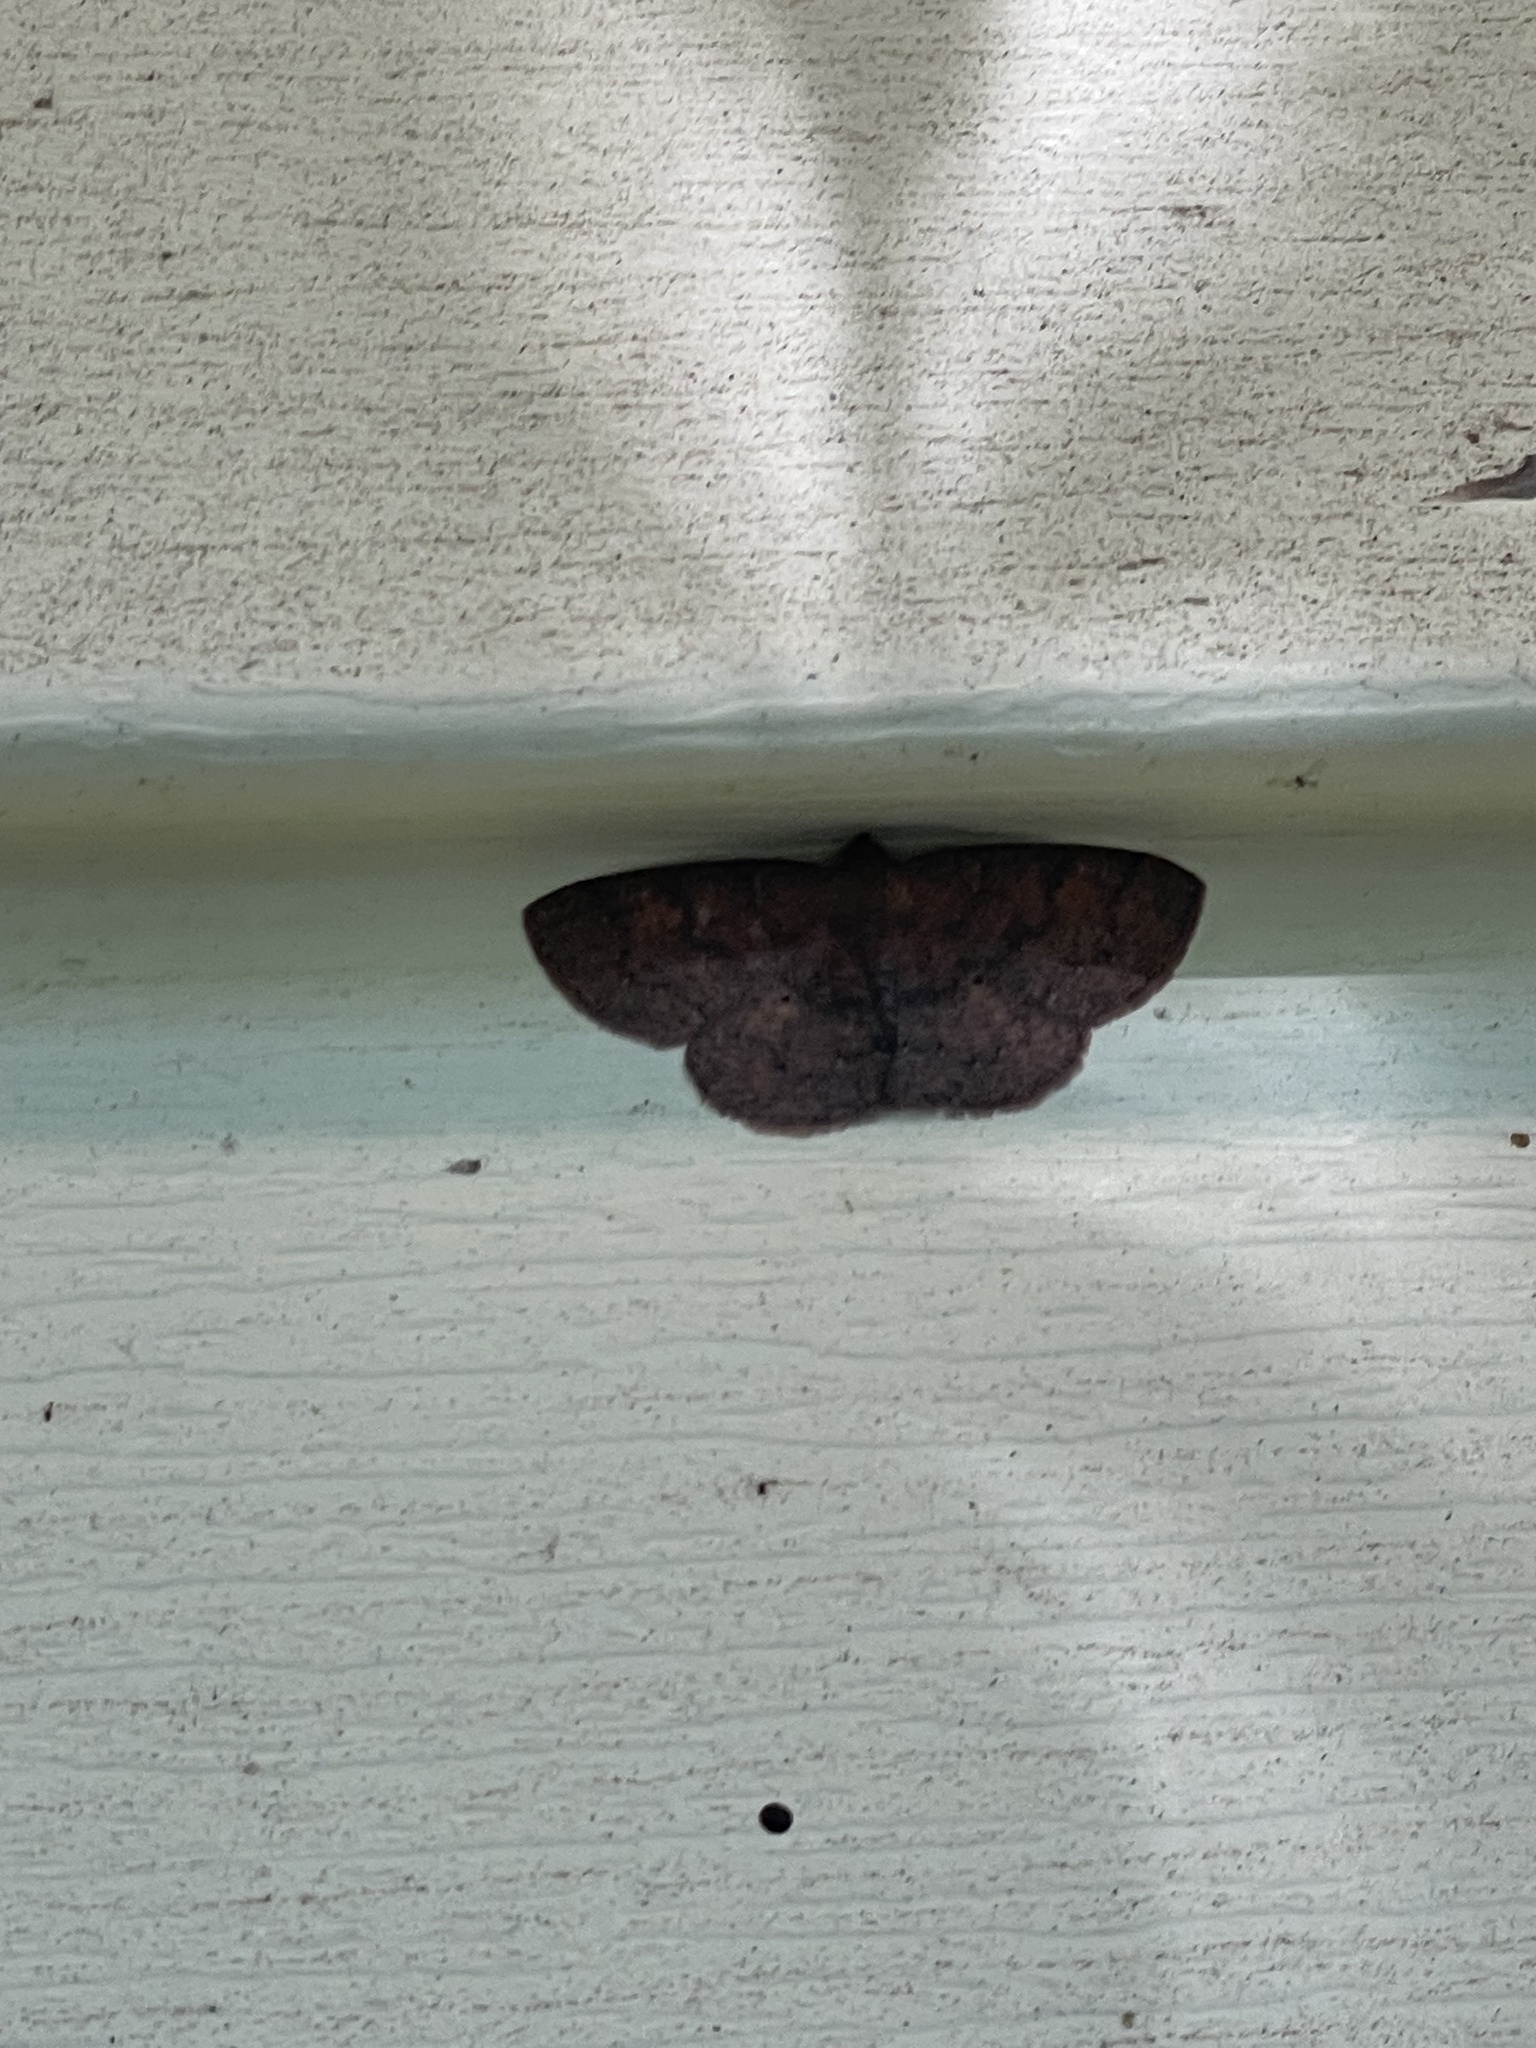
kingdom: Animalia
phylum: Arthropoda
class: Insecta
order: Lepidoptera
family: Geometridae
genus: Ilexia
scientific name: Ilexia intractata
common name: Black-dotted ruddy moth
